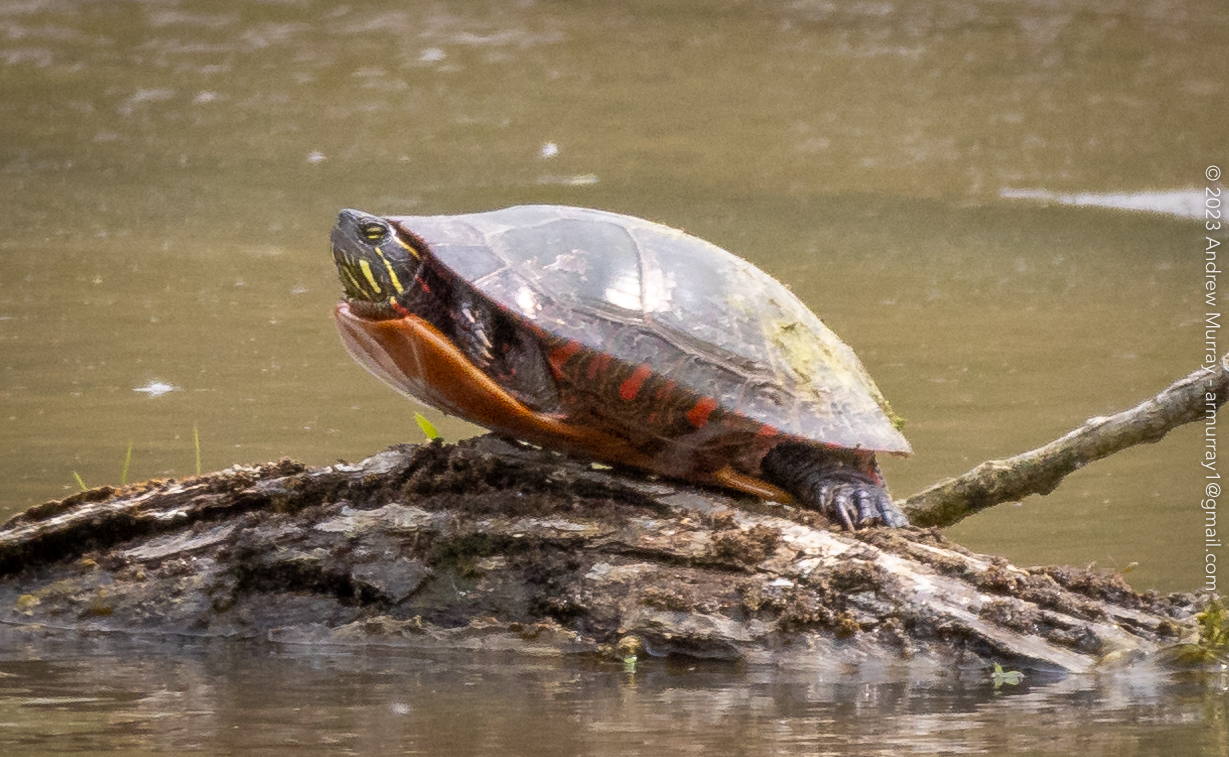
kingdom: Animalia
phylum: Chordata
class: Testudines
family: Emydidae
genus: Chrysemys
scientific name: Chrysemys picta
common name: Painted turtle
